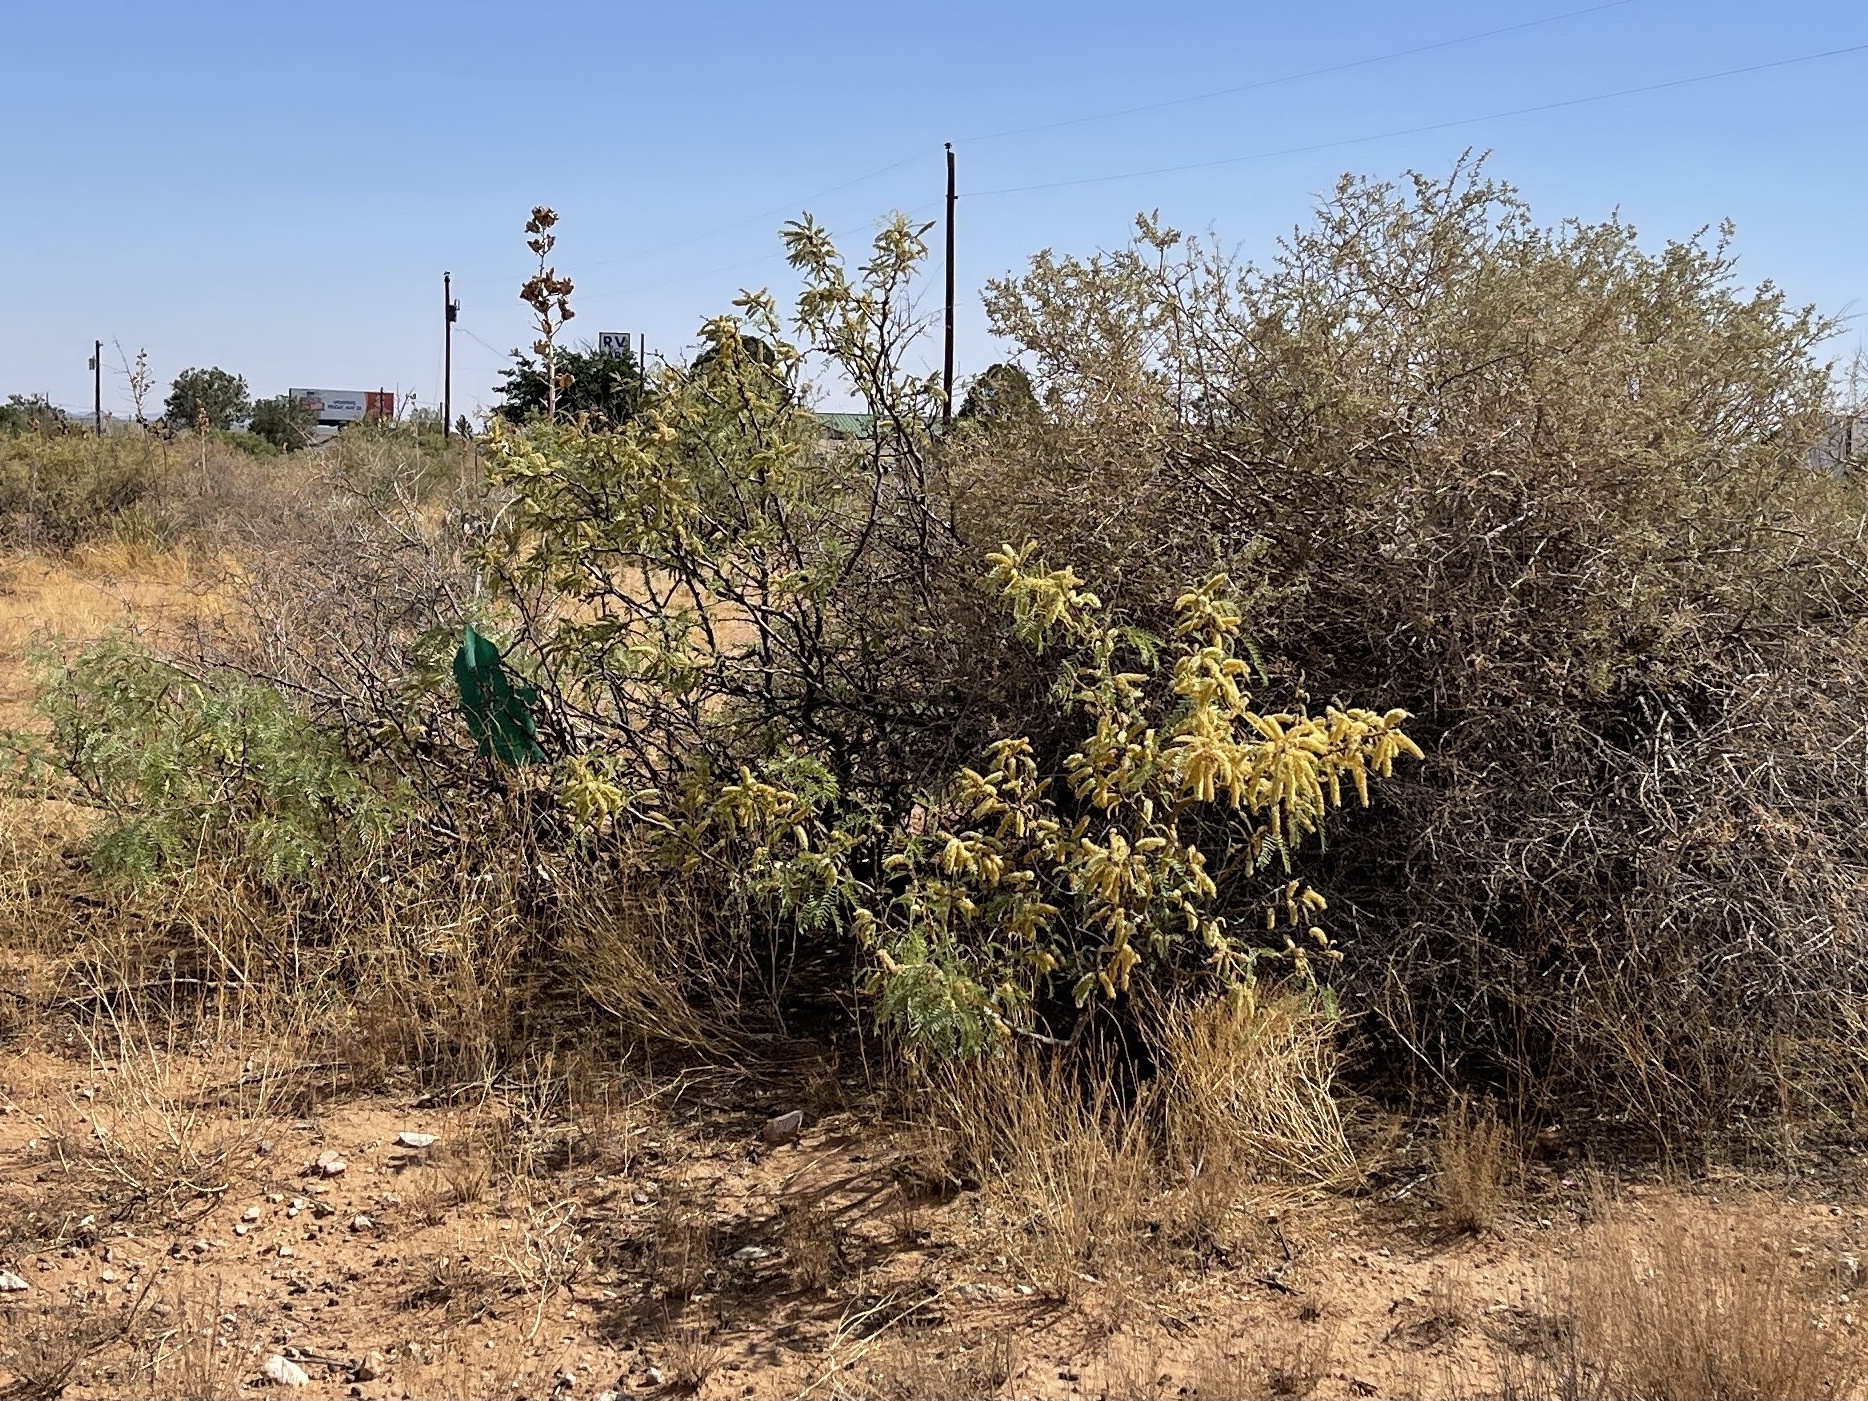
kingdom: Plantae
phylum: Tracheophyta
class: Magnoliopsida
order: Fabales
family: Fabaceae
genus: Prosopis
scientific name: Prosopis glandulosa
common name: Honey mesquite
